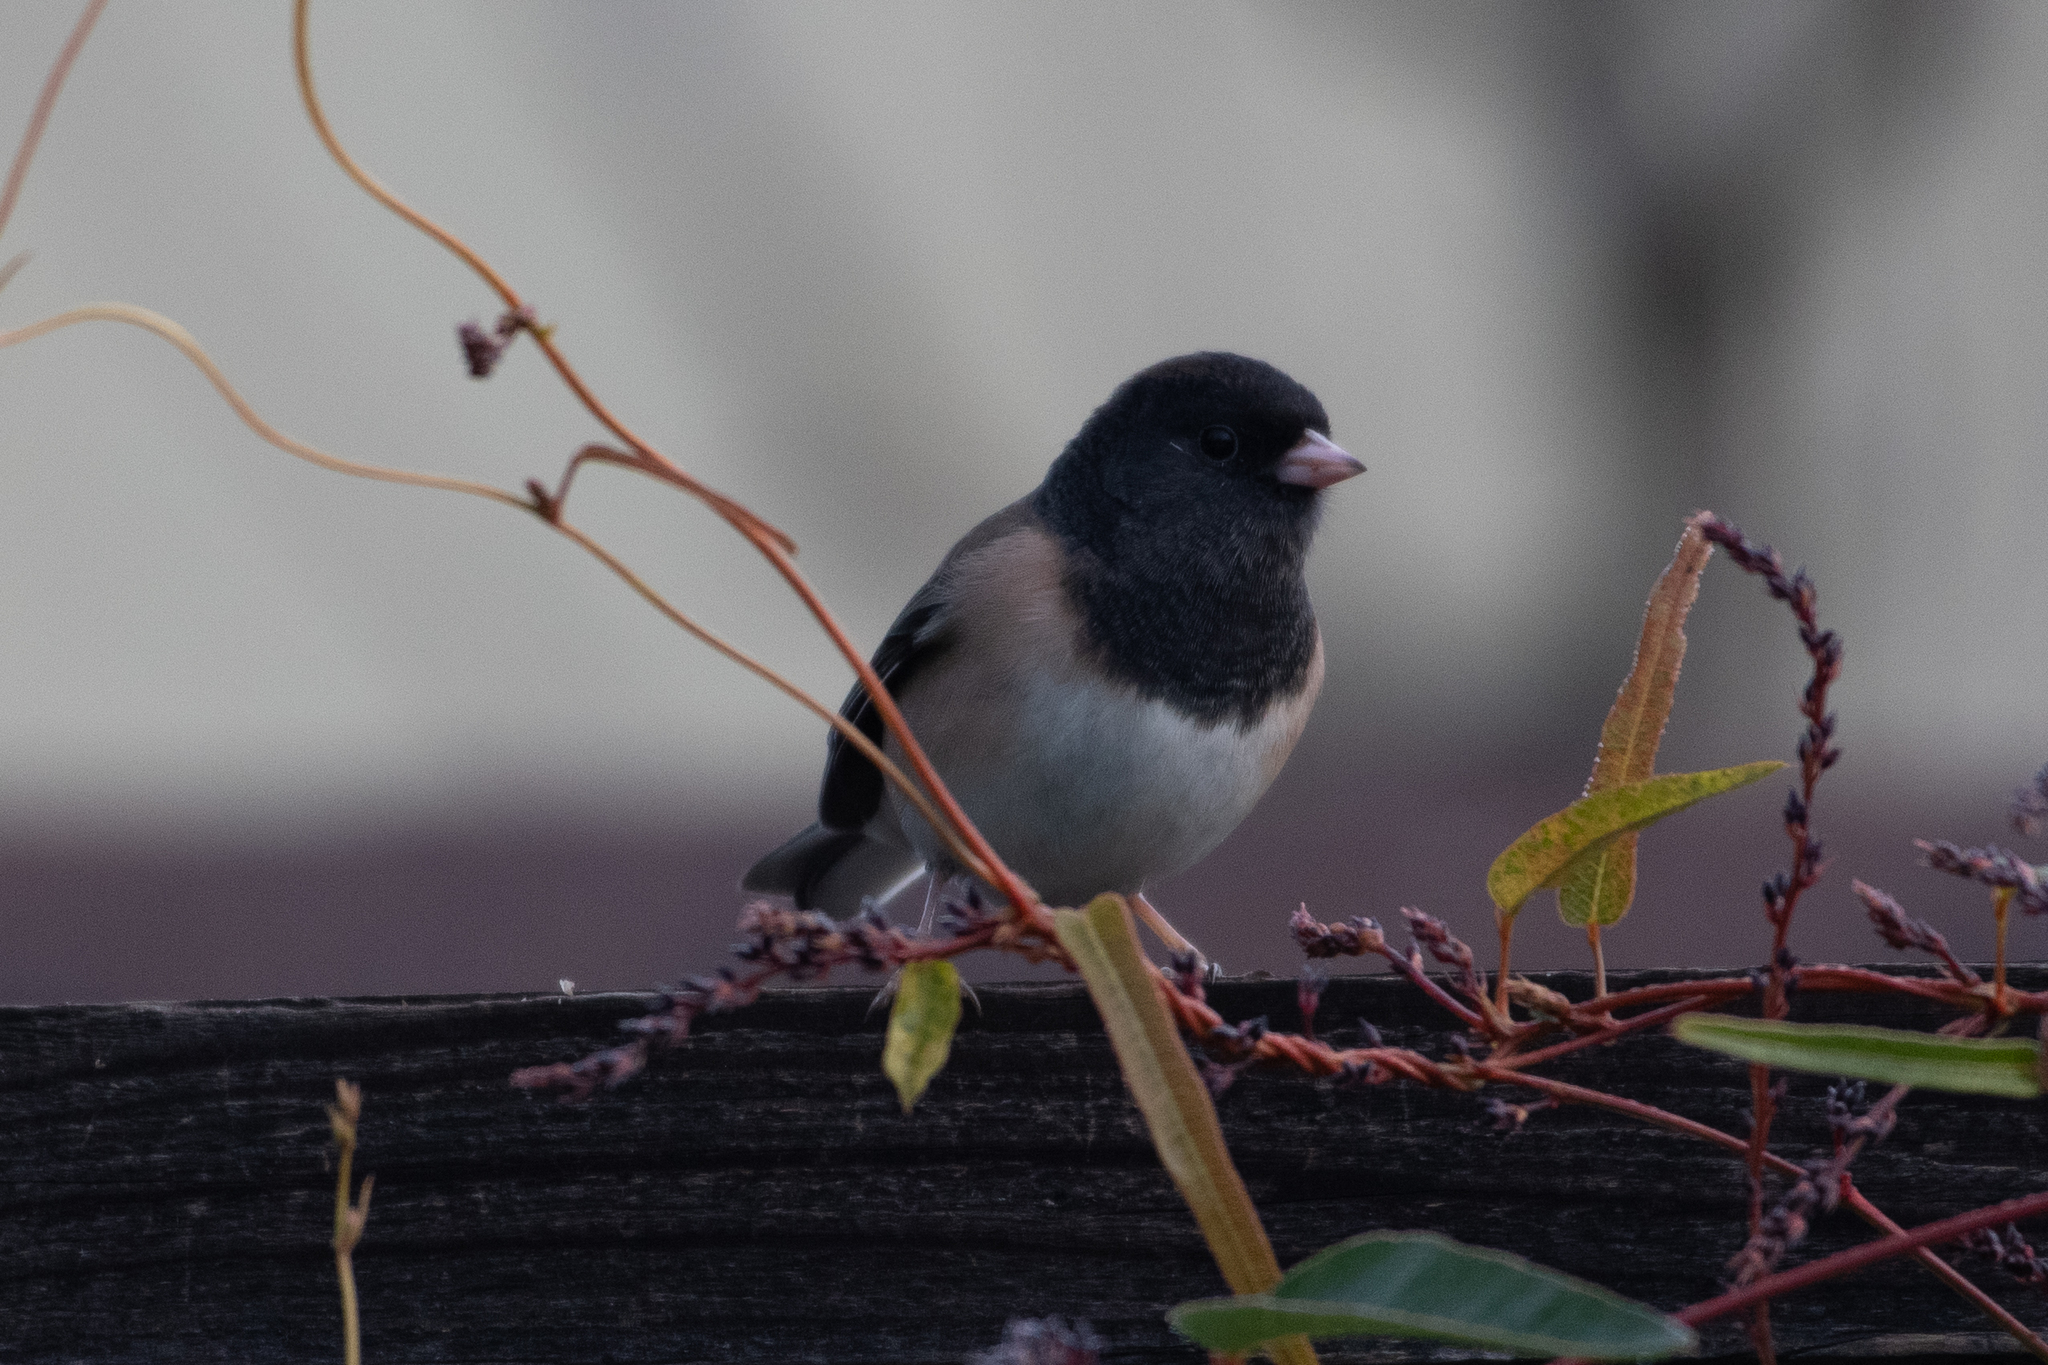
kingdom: Animalia
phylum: Chordata
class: Aves
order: Passeriformes
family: Passerellidae
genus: Junco
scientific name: Junco hyemalis
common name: Dark-eyed junco
